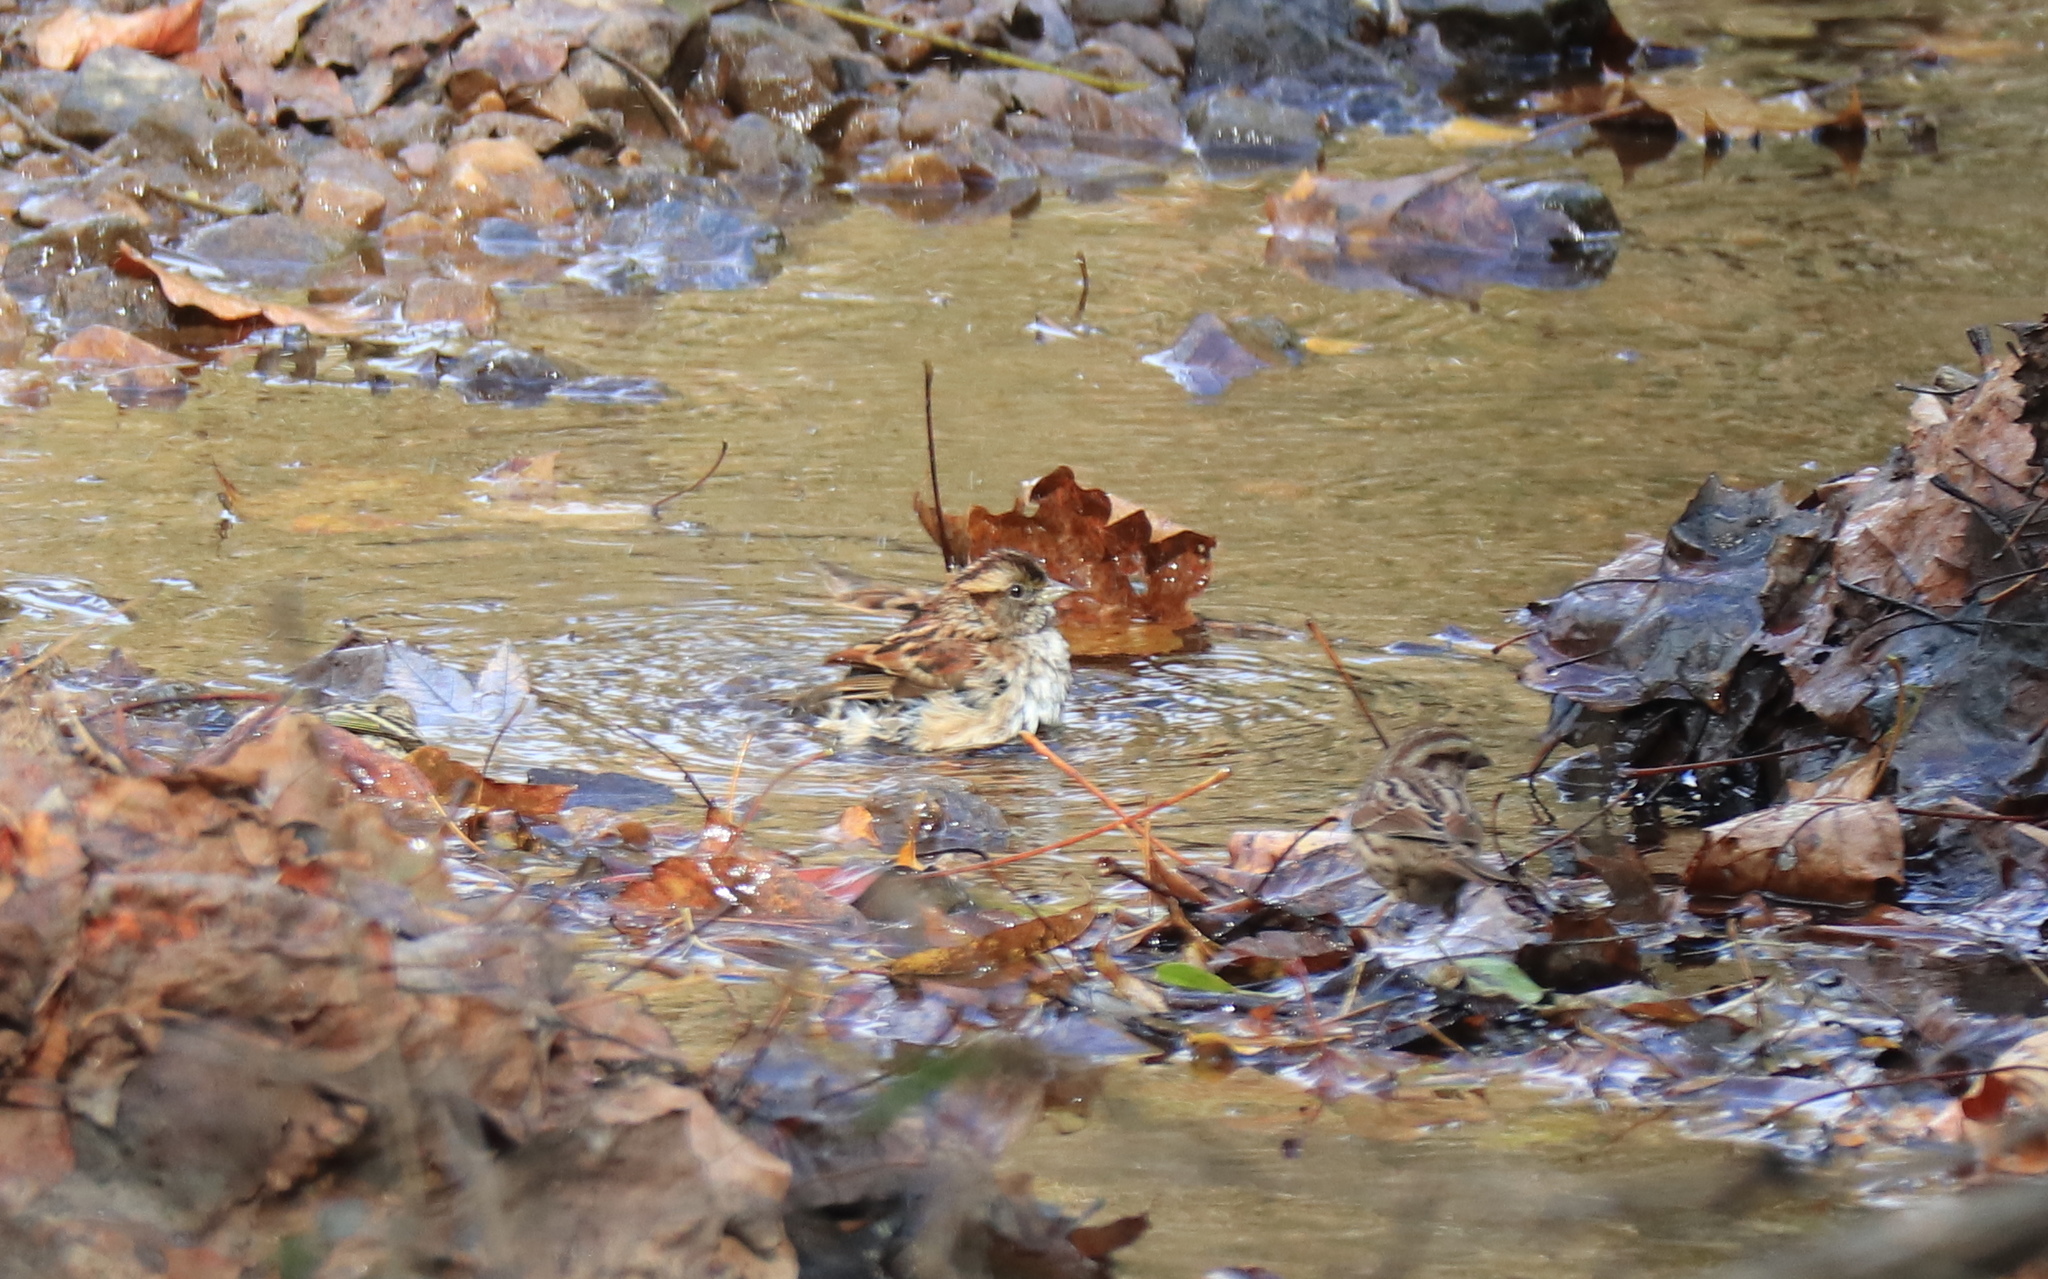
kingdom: Animalia
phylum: Chordata
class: Aves
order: Passeriformes
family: Passerellidae
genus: Zonotrichia
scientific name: Zonotrichia albicollis
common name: White-throated sparrow
